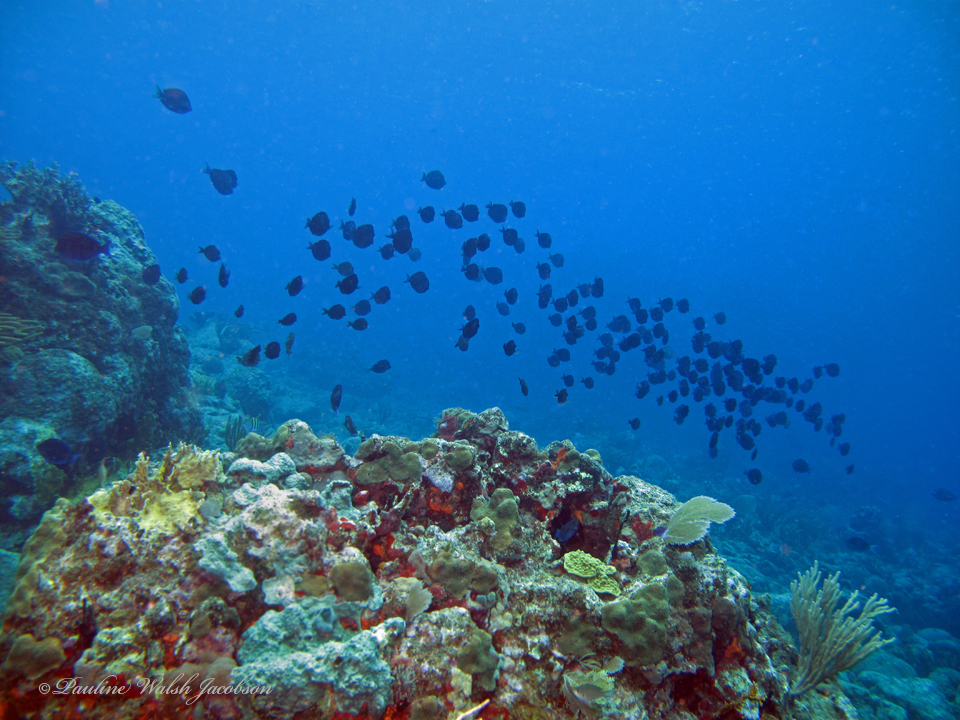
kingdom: Animalia
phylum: Chordata
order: Perciformes
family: Acanthuridae
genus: Acanthurus
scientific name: Acanthurus coeruleus
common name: Blue tang
